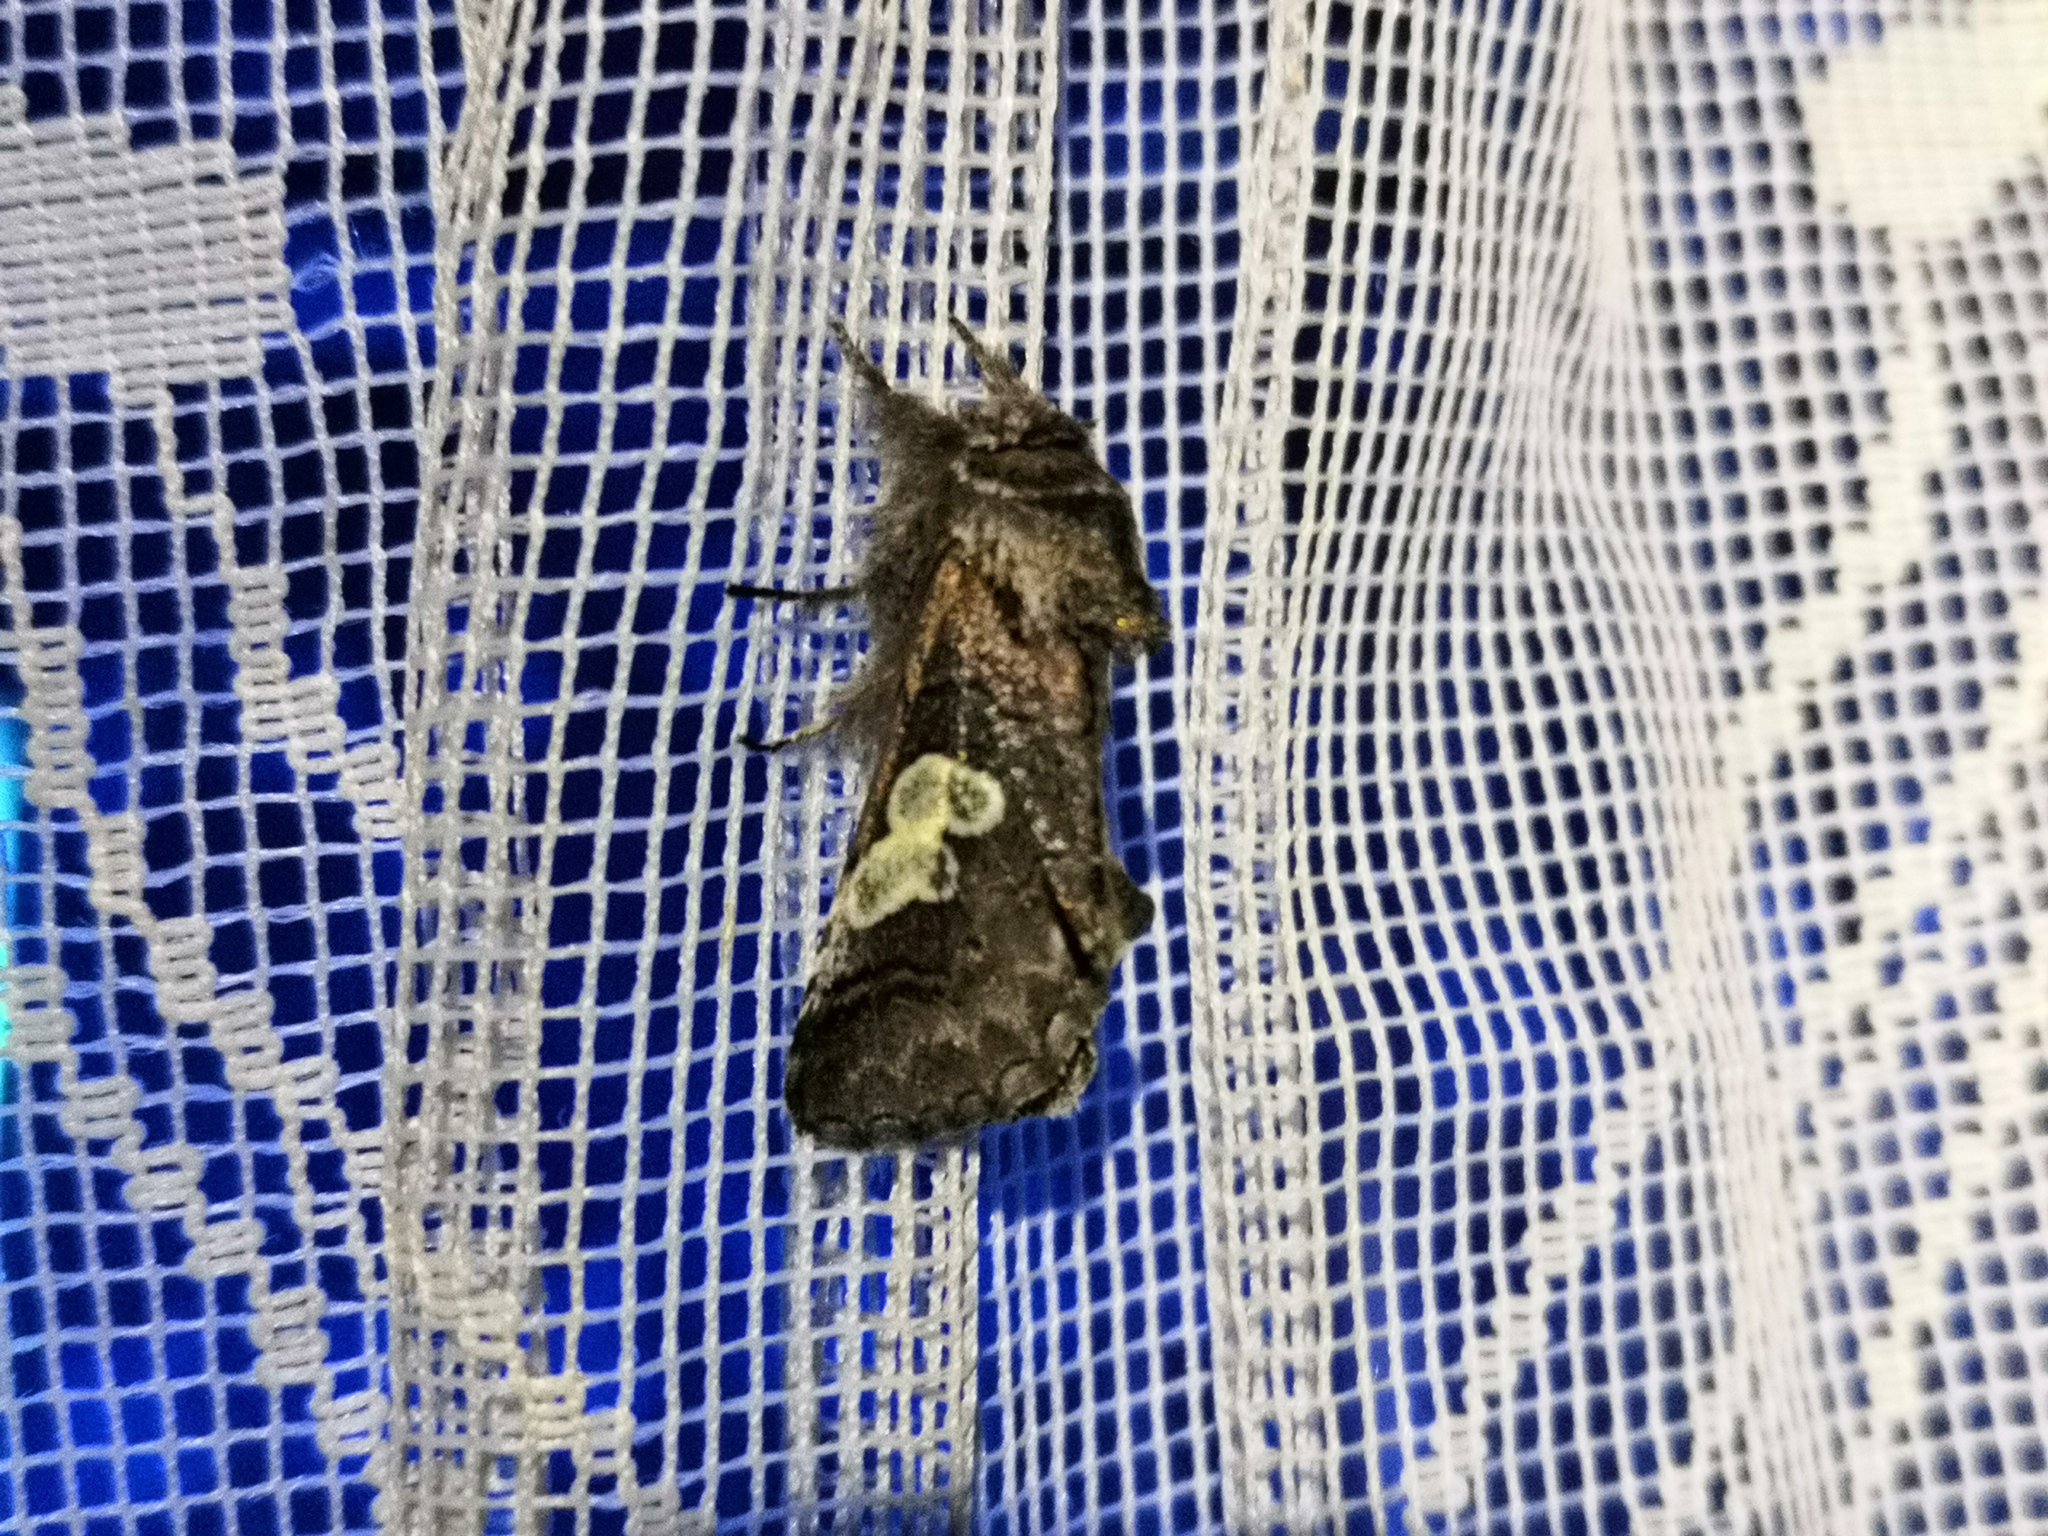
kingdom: Animalia
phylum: Arthropoda
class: Insecta
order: Lepidoptera
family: Noctuidae
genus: Diloba
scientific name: Diloba caeruleocephala
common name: Figure of eight
